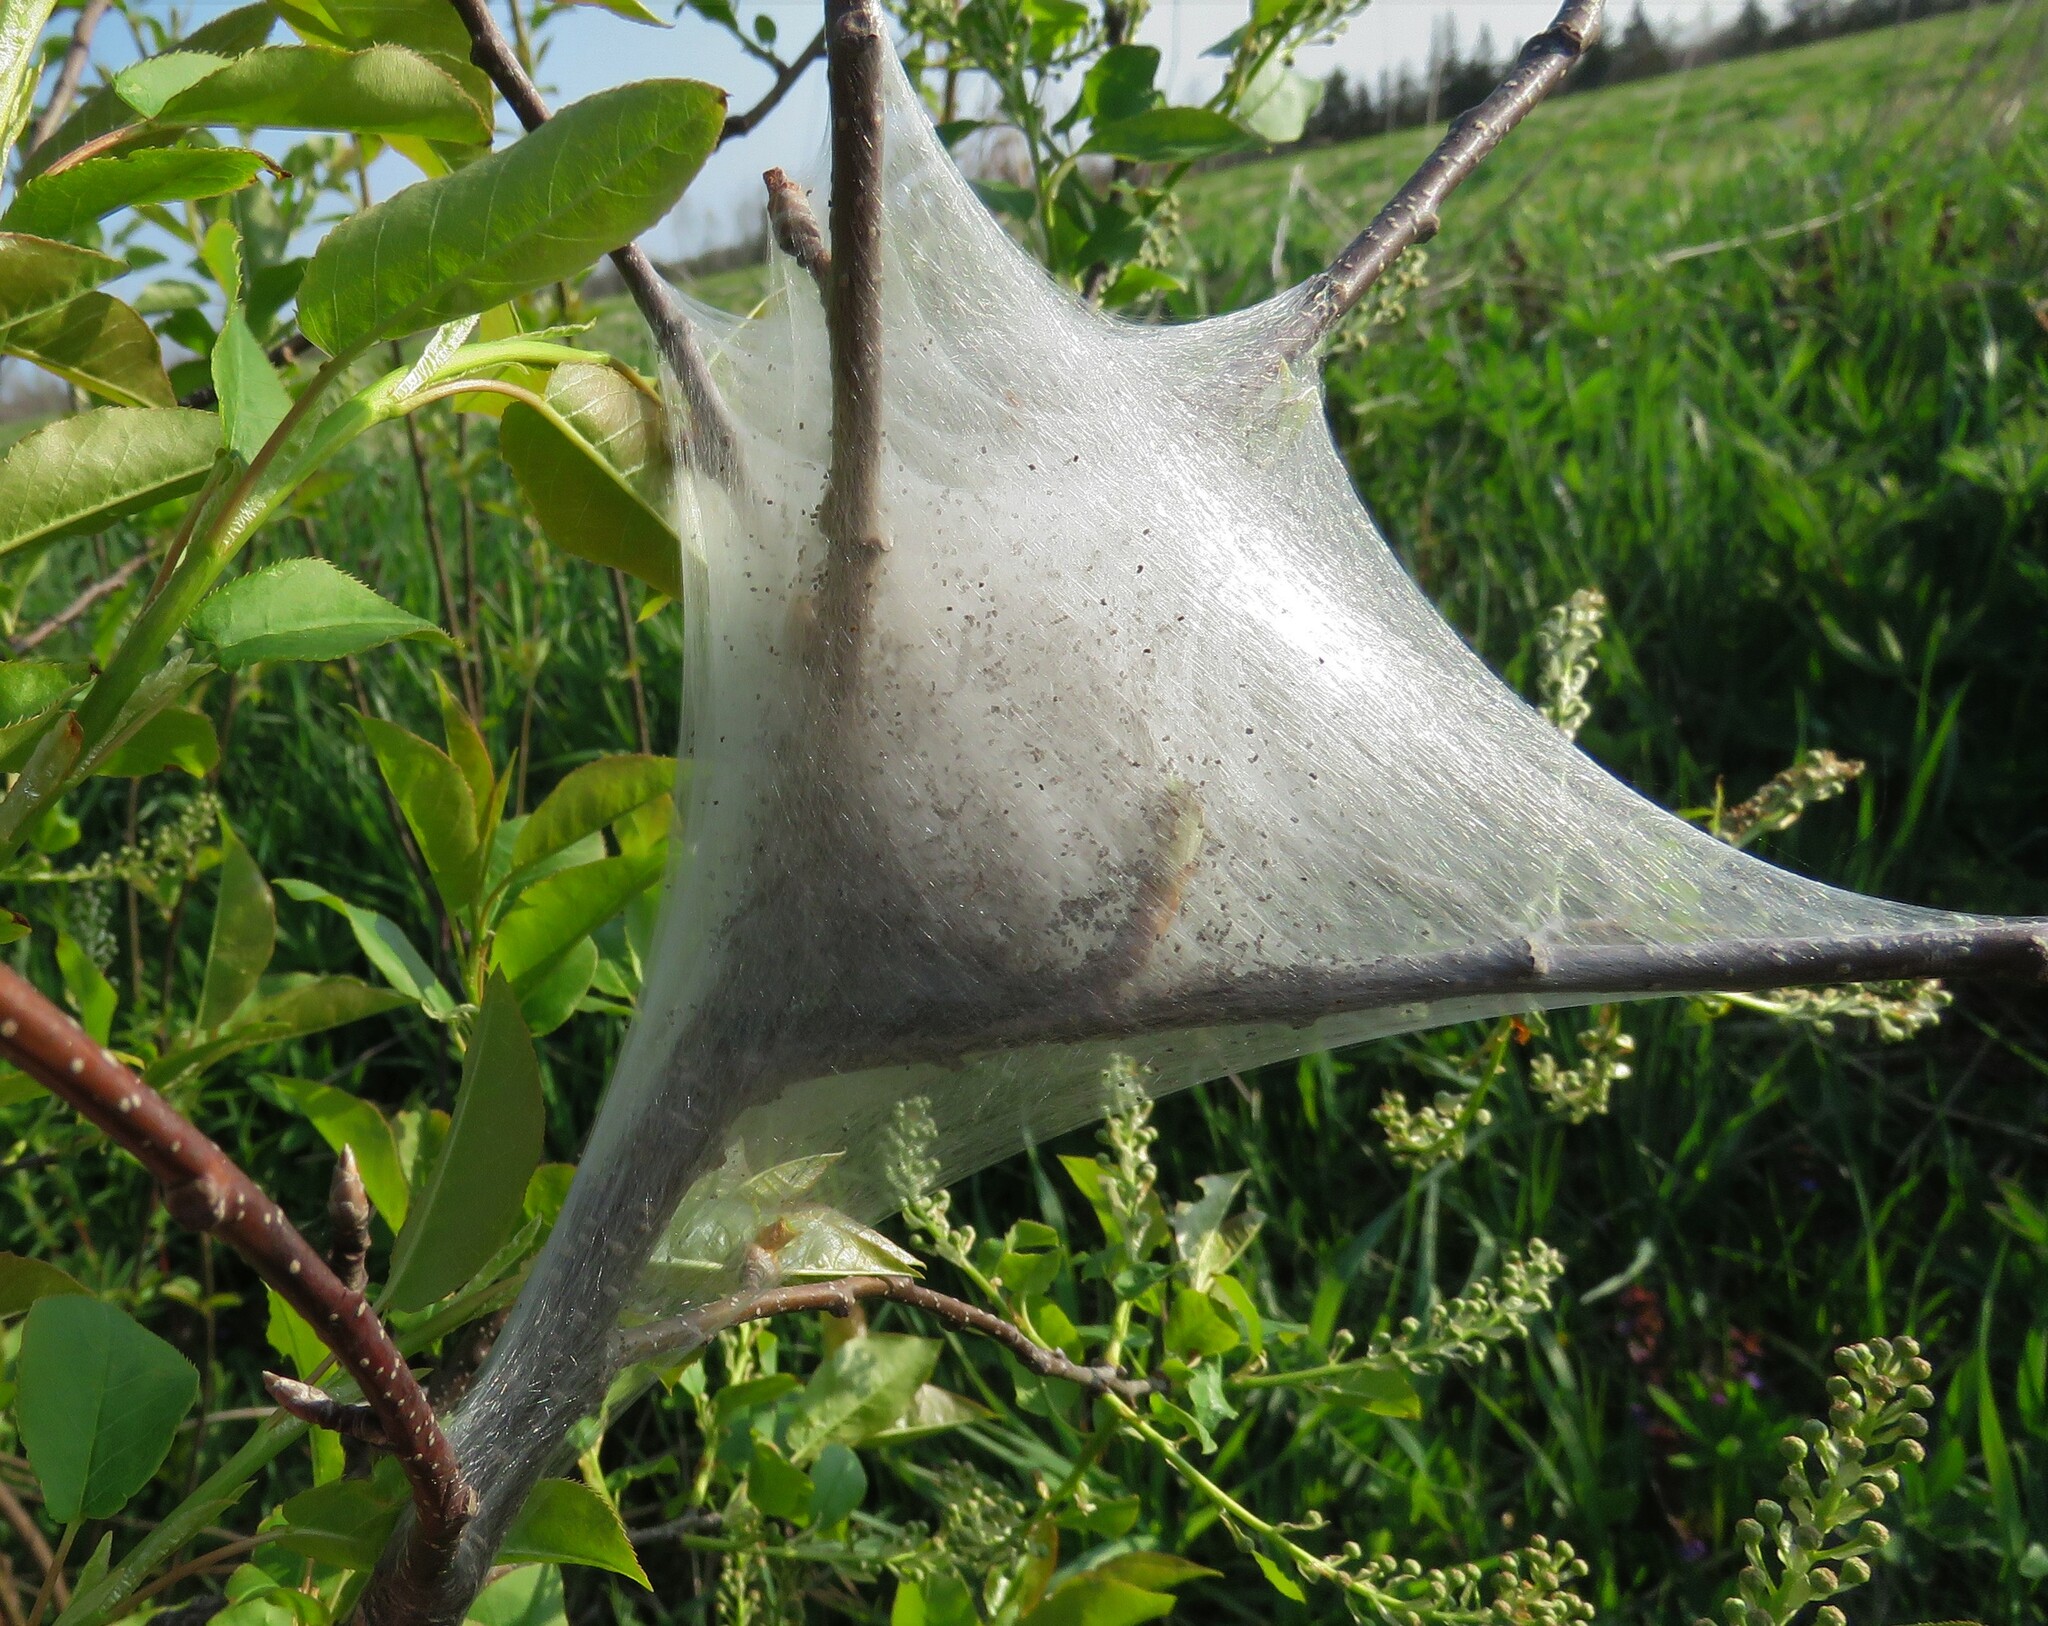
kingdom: Animalia
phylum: Arthropoda
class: Insecta
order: Lepidoptera
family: Lasiocampidae
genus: Malacosoma
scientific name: Malacosoma americana
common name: Eastern tent caterpillar moth
